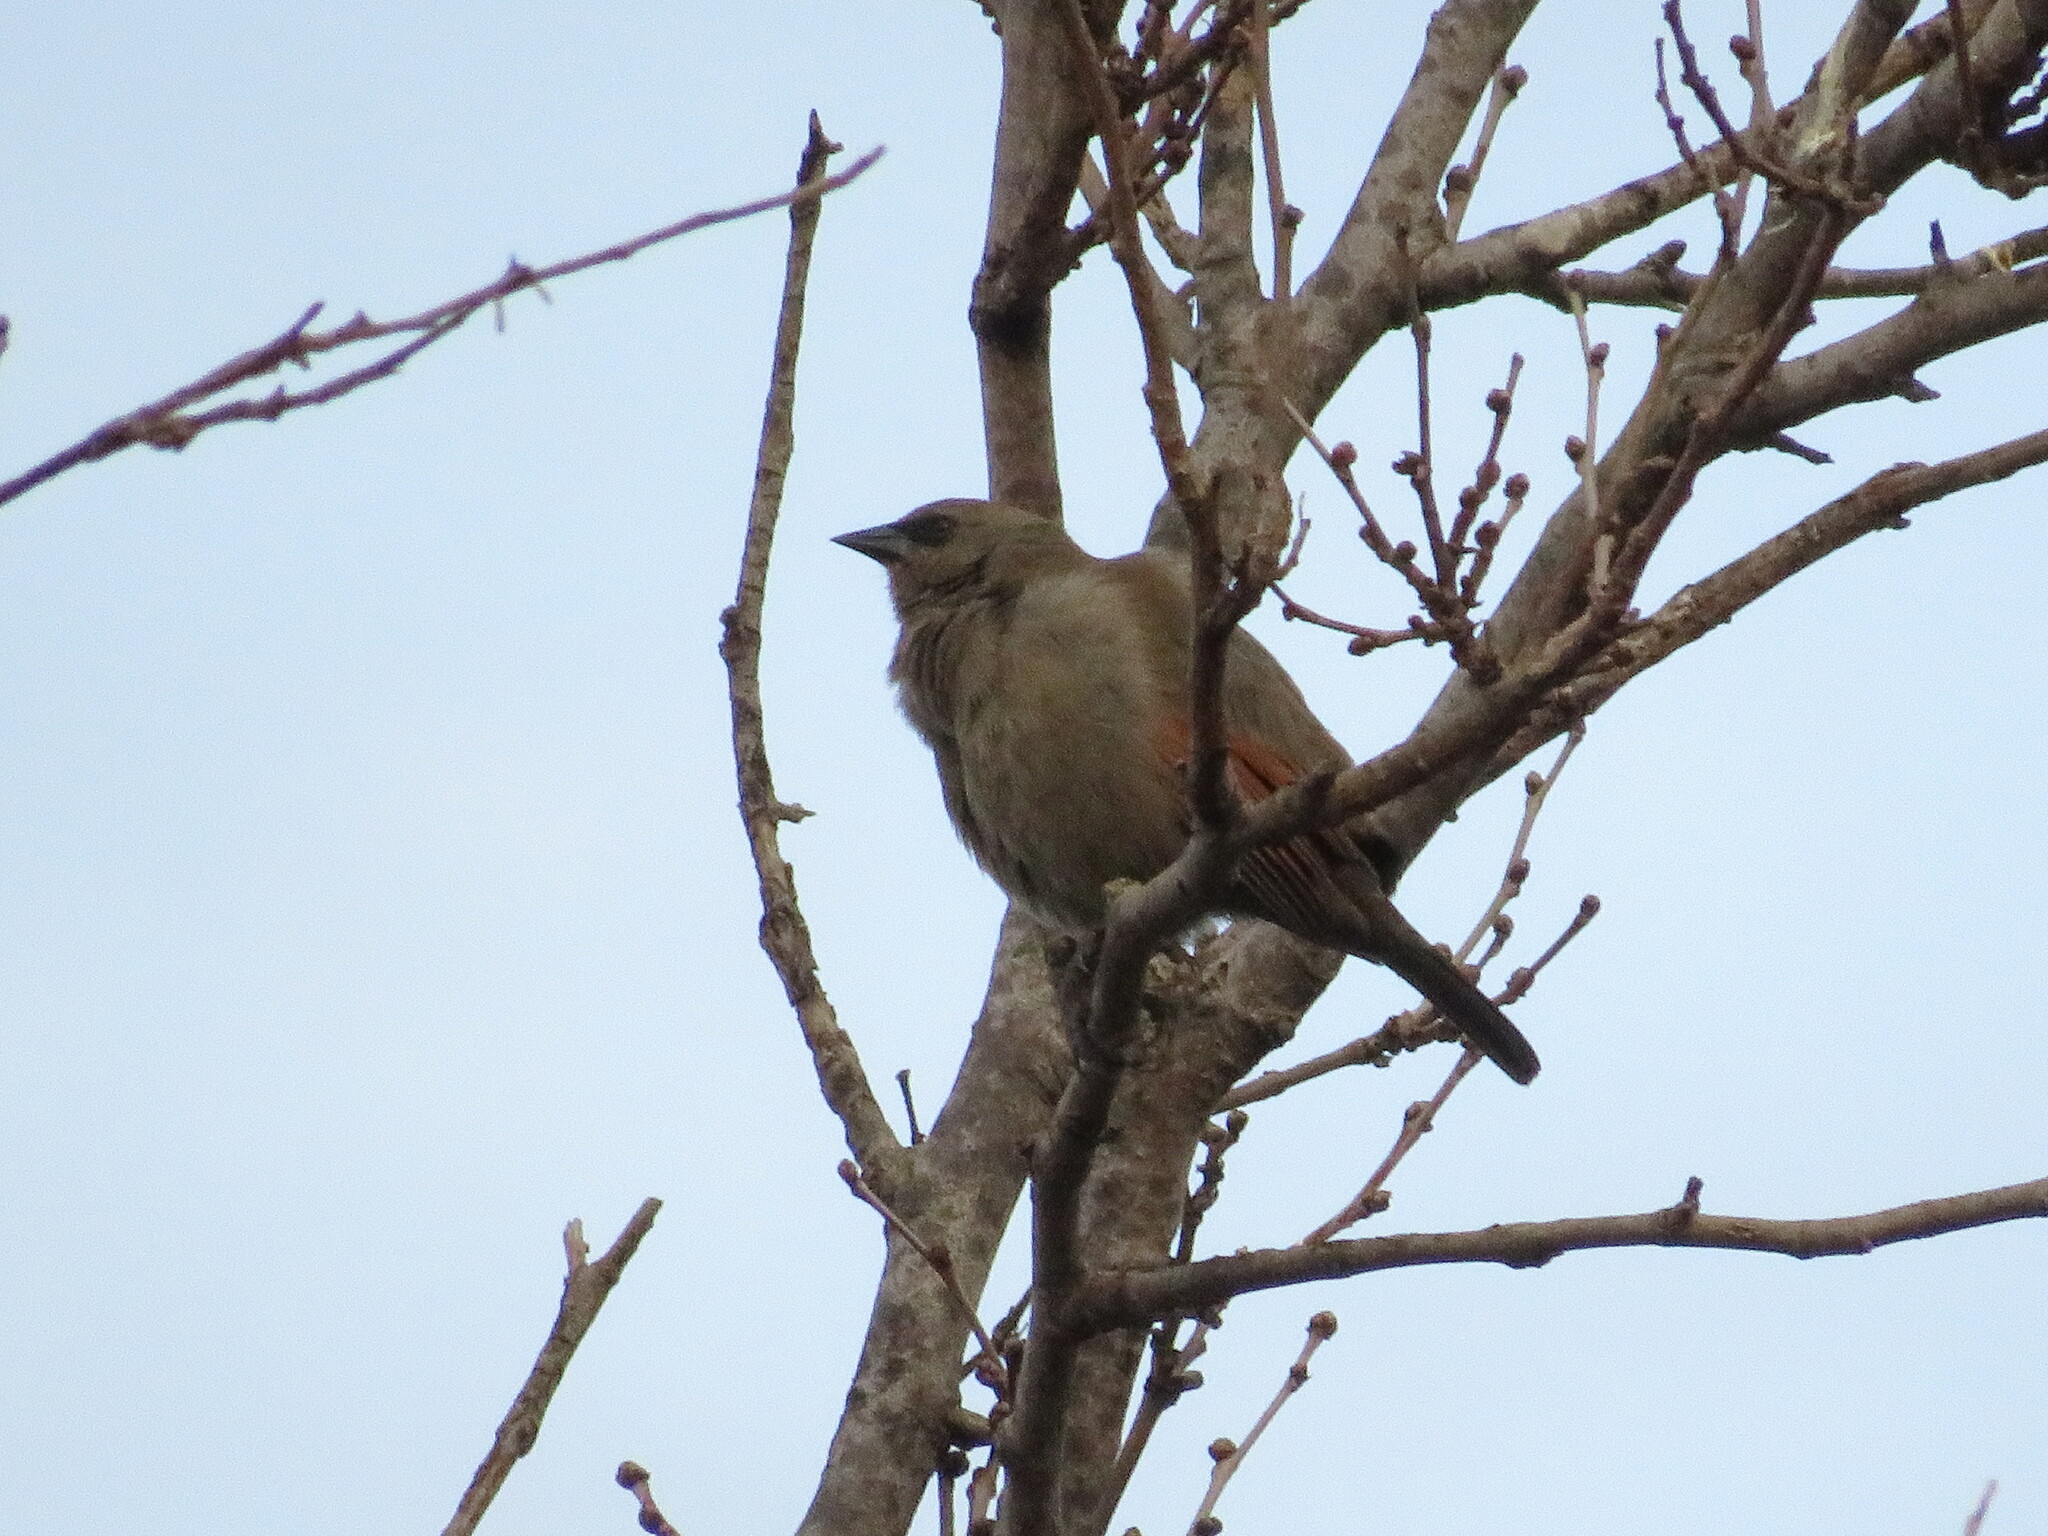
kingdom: Animalia
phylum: Chordata
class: Aves
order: Passeriformes
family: Icteridae
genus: Agelaioides
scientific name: Agelaioides badius
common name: Baywing
